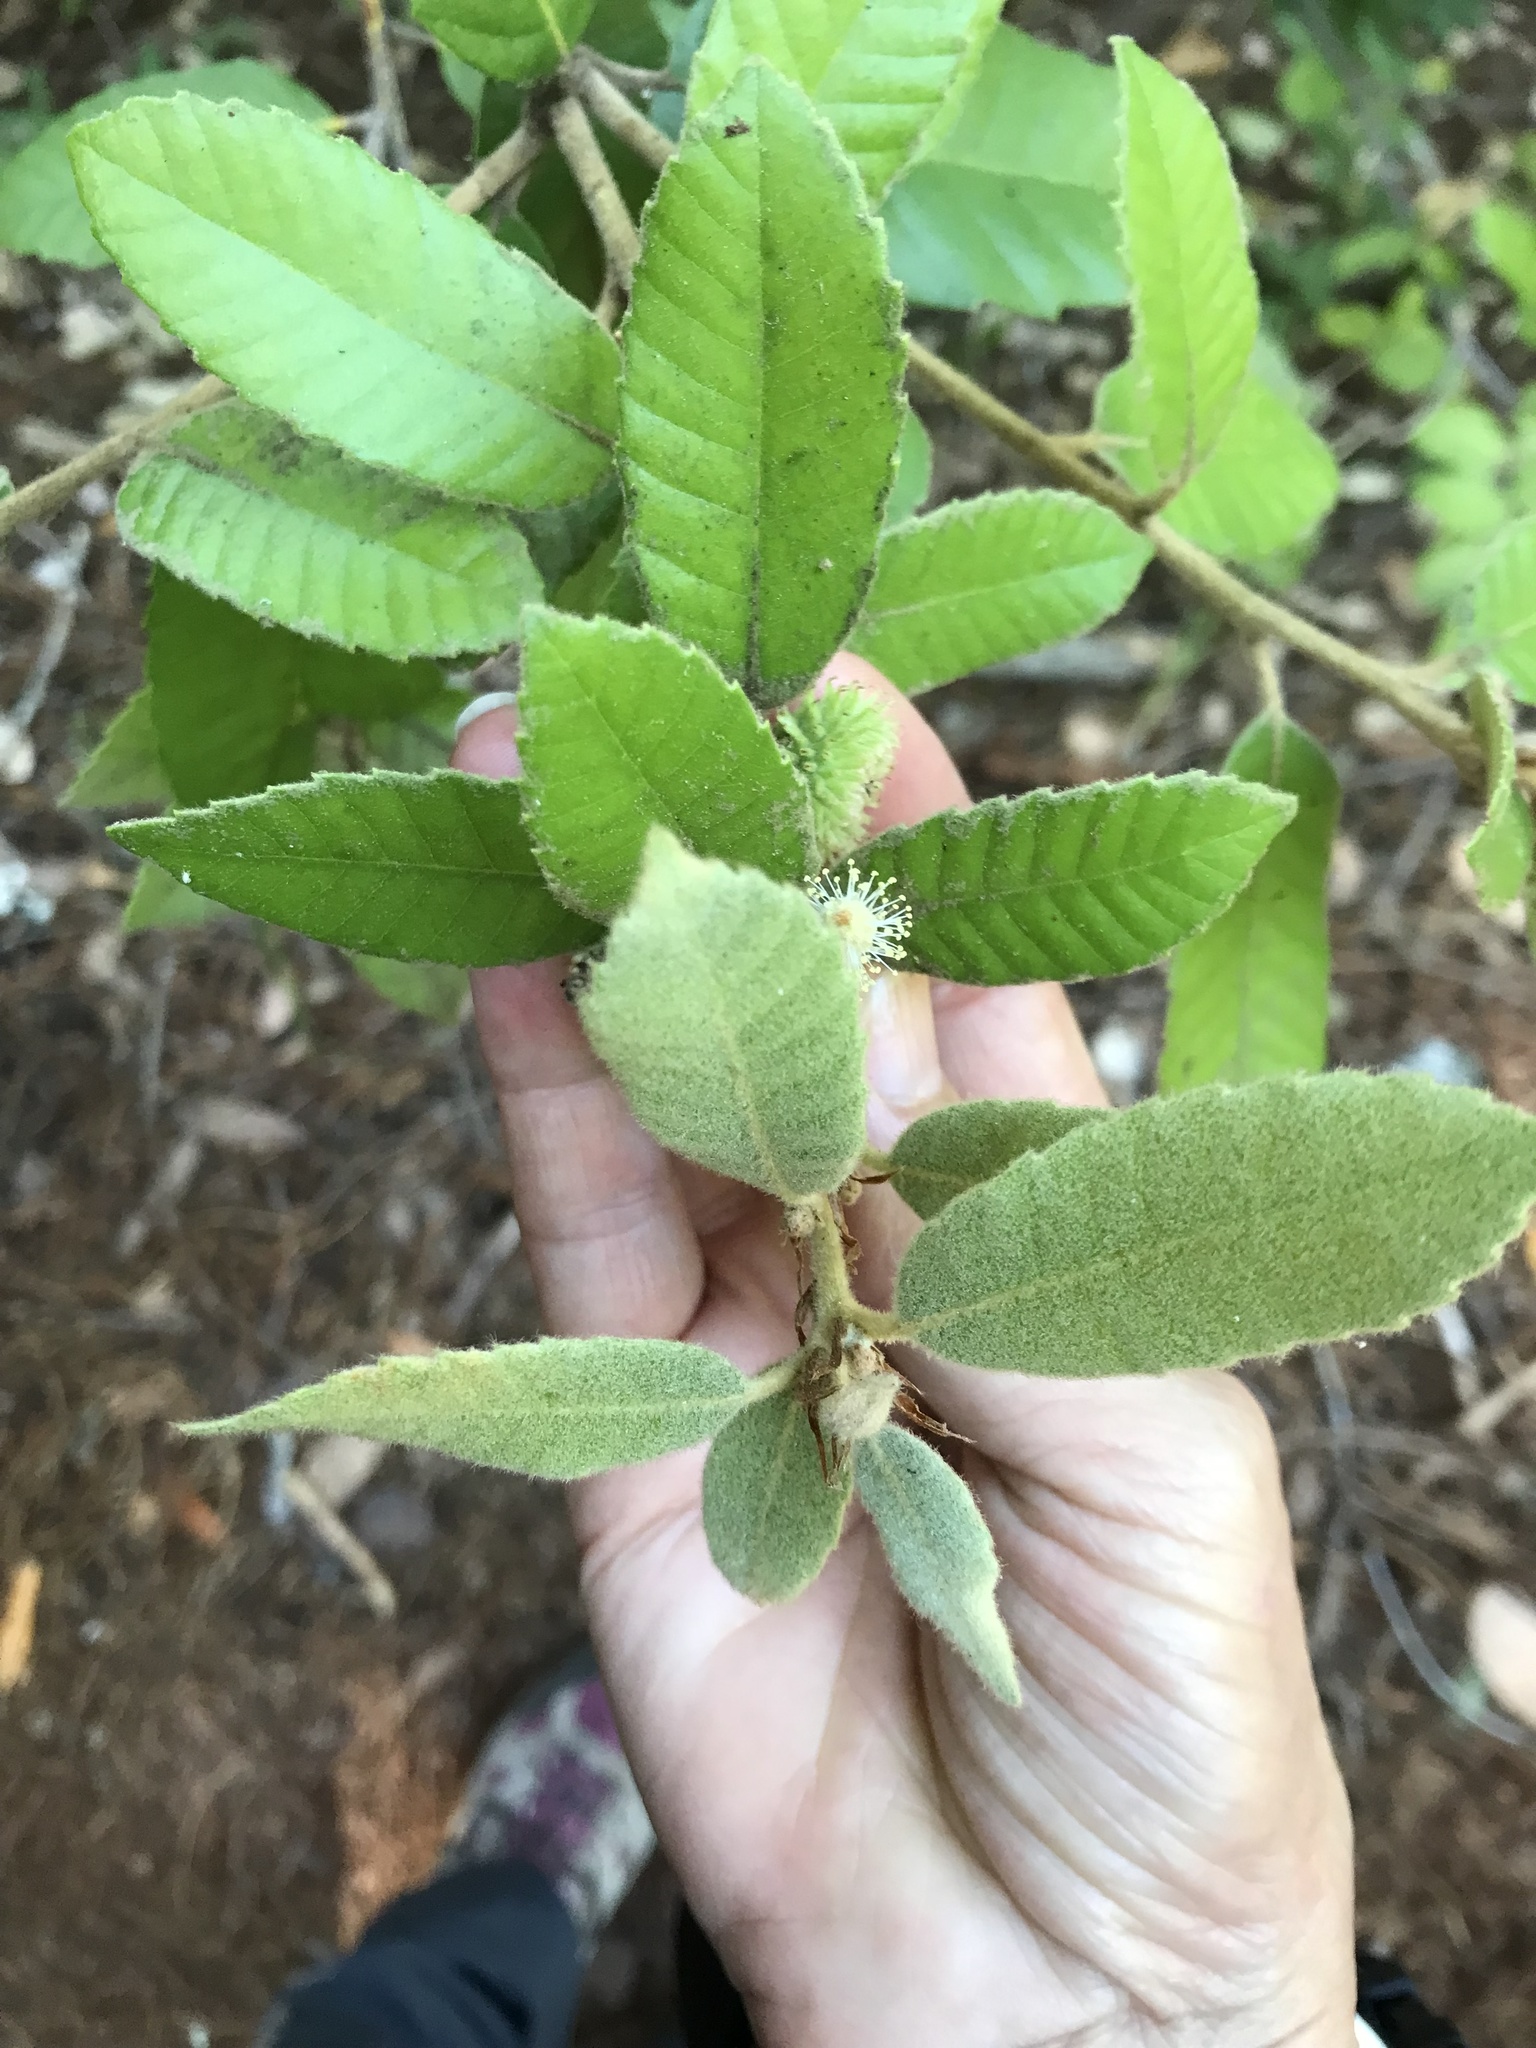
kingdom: Plantae
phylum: Tracheophyta
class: Magnoliopsida
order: Fagales
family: Fagaceae
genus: Notholithocarpus
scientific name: Notholithocarpus densiflorus
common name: Tan bark oak
